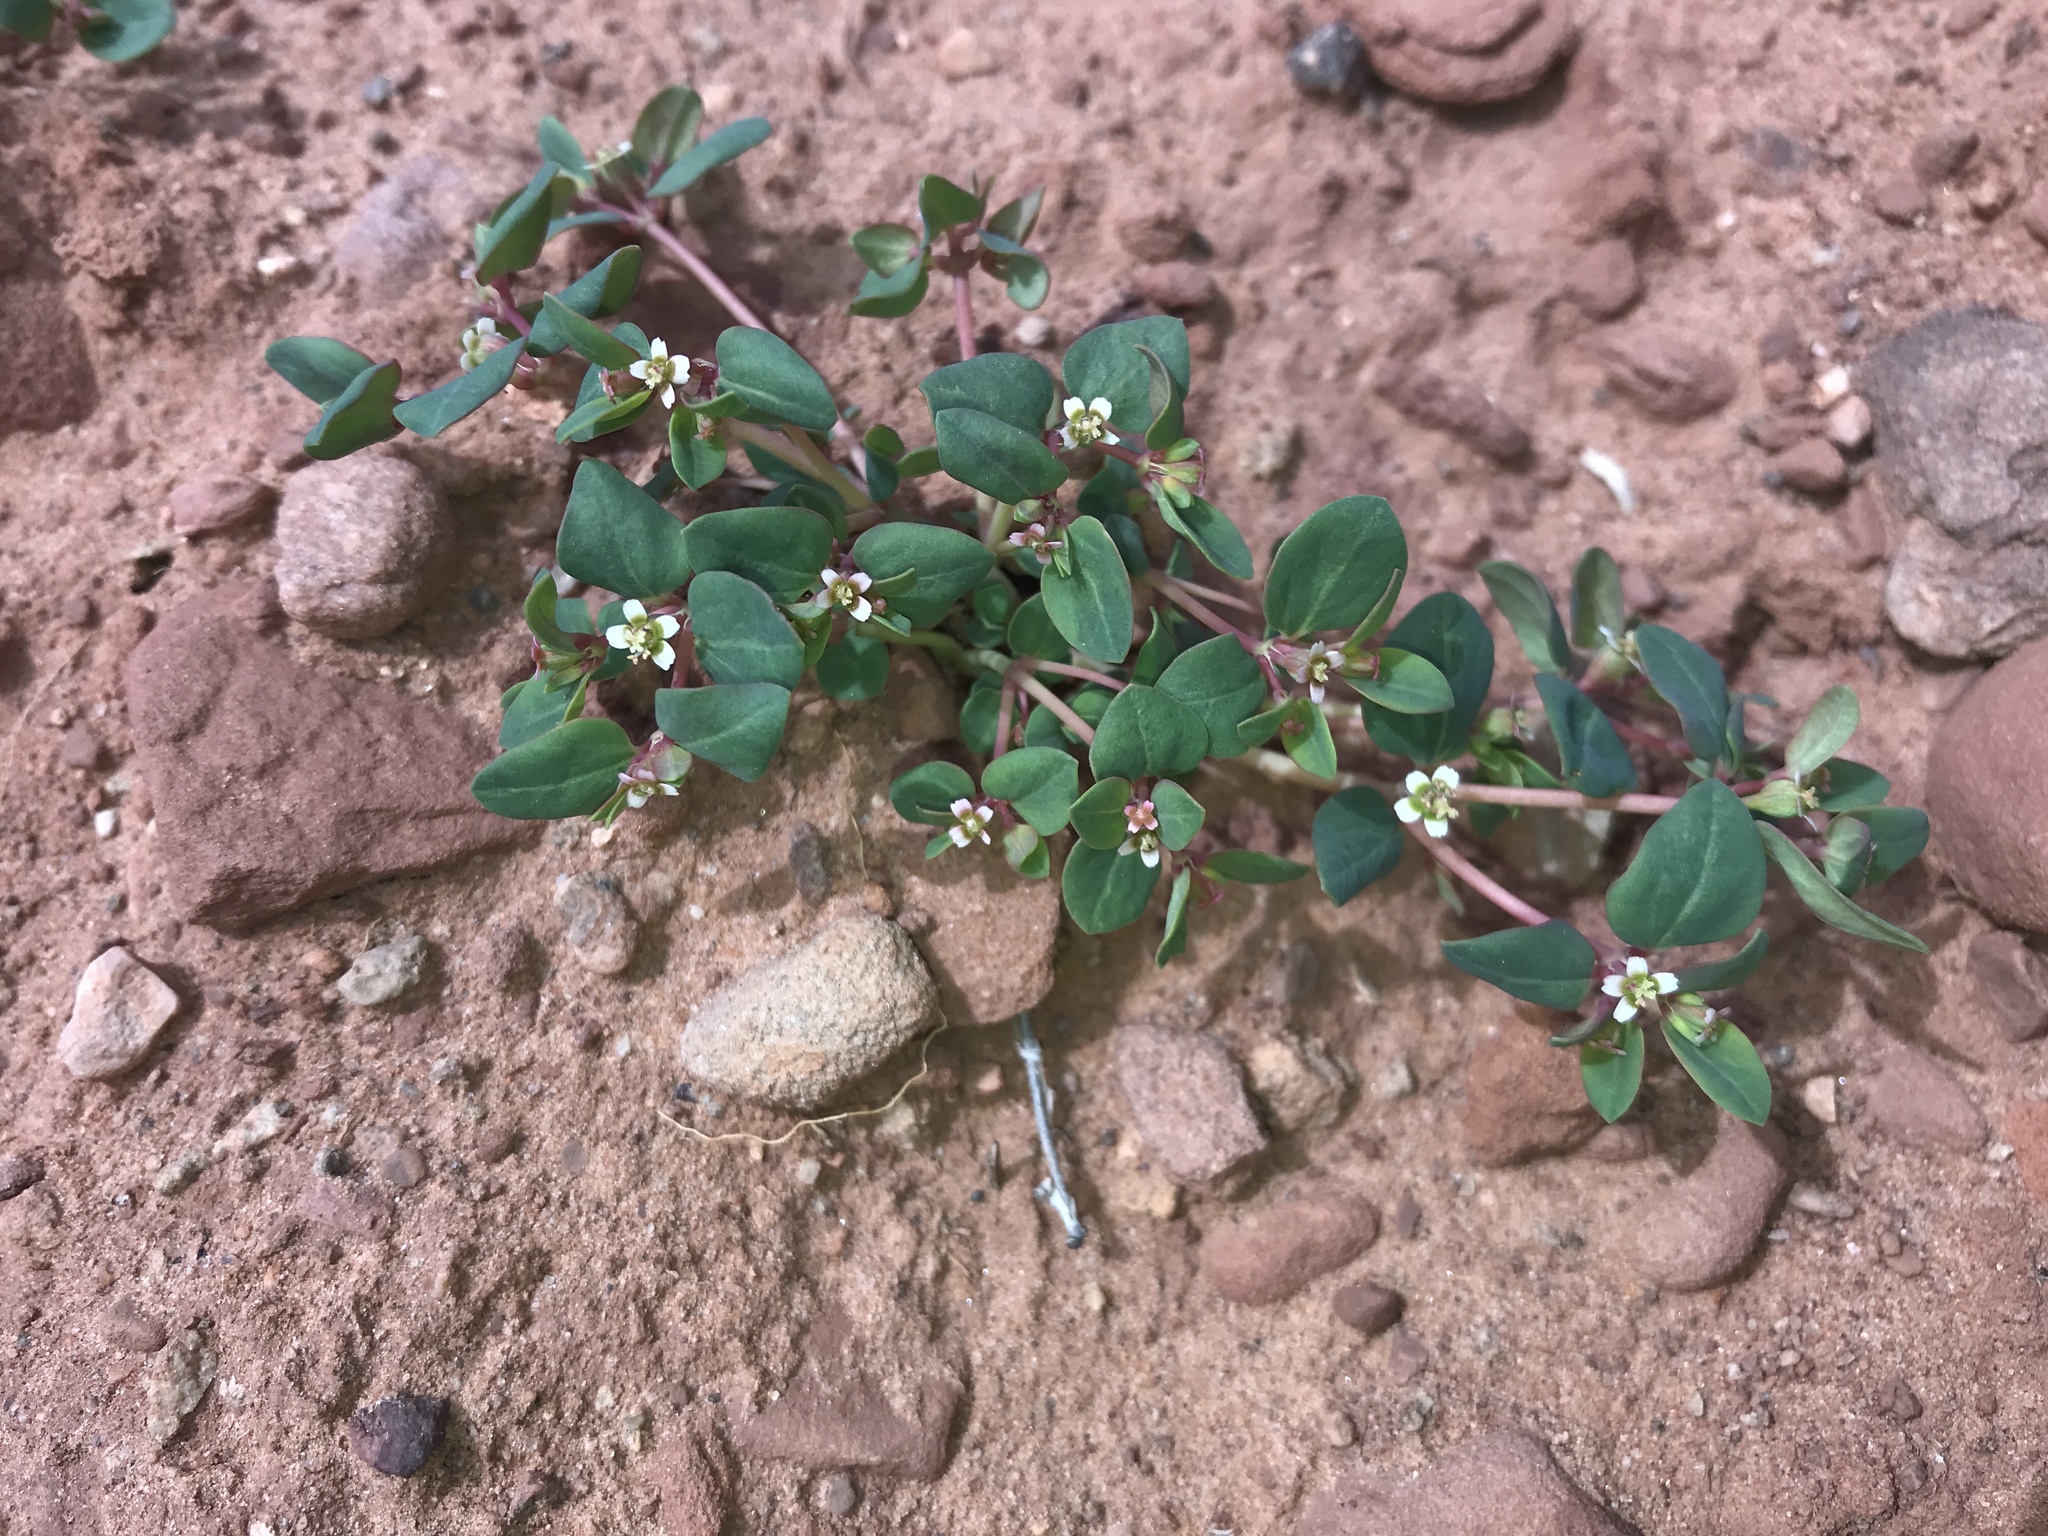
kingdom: Plantae
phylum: Tracheophyta
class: Magnoliopsida
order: Malpighiales
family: Euphorbiaceae
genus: Euphorbia
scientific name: Euphorbia fendleri
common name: Fendler's euphorbia
